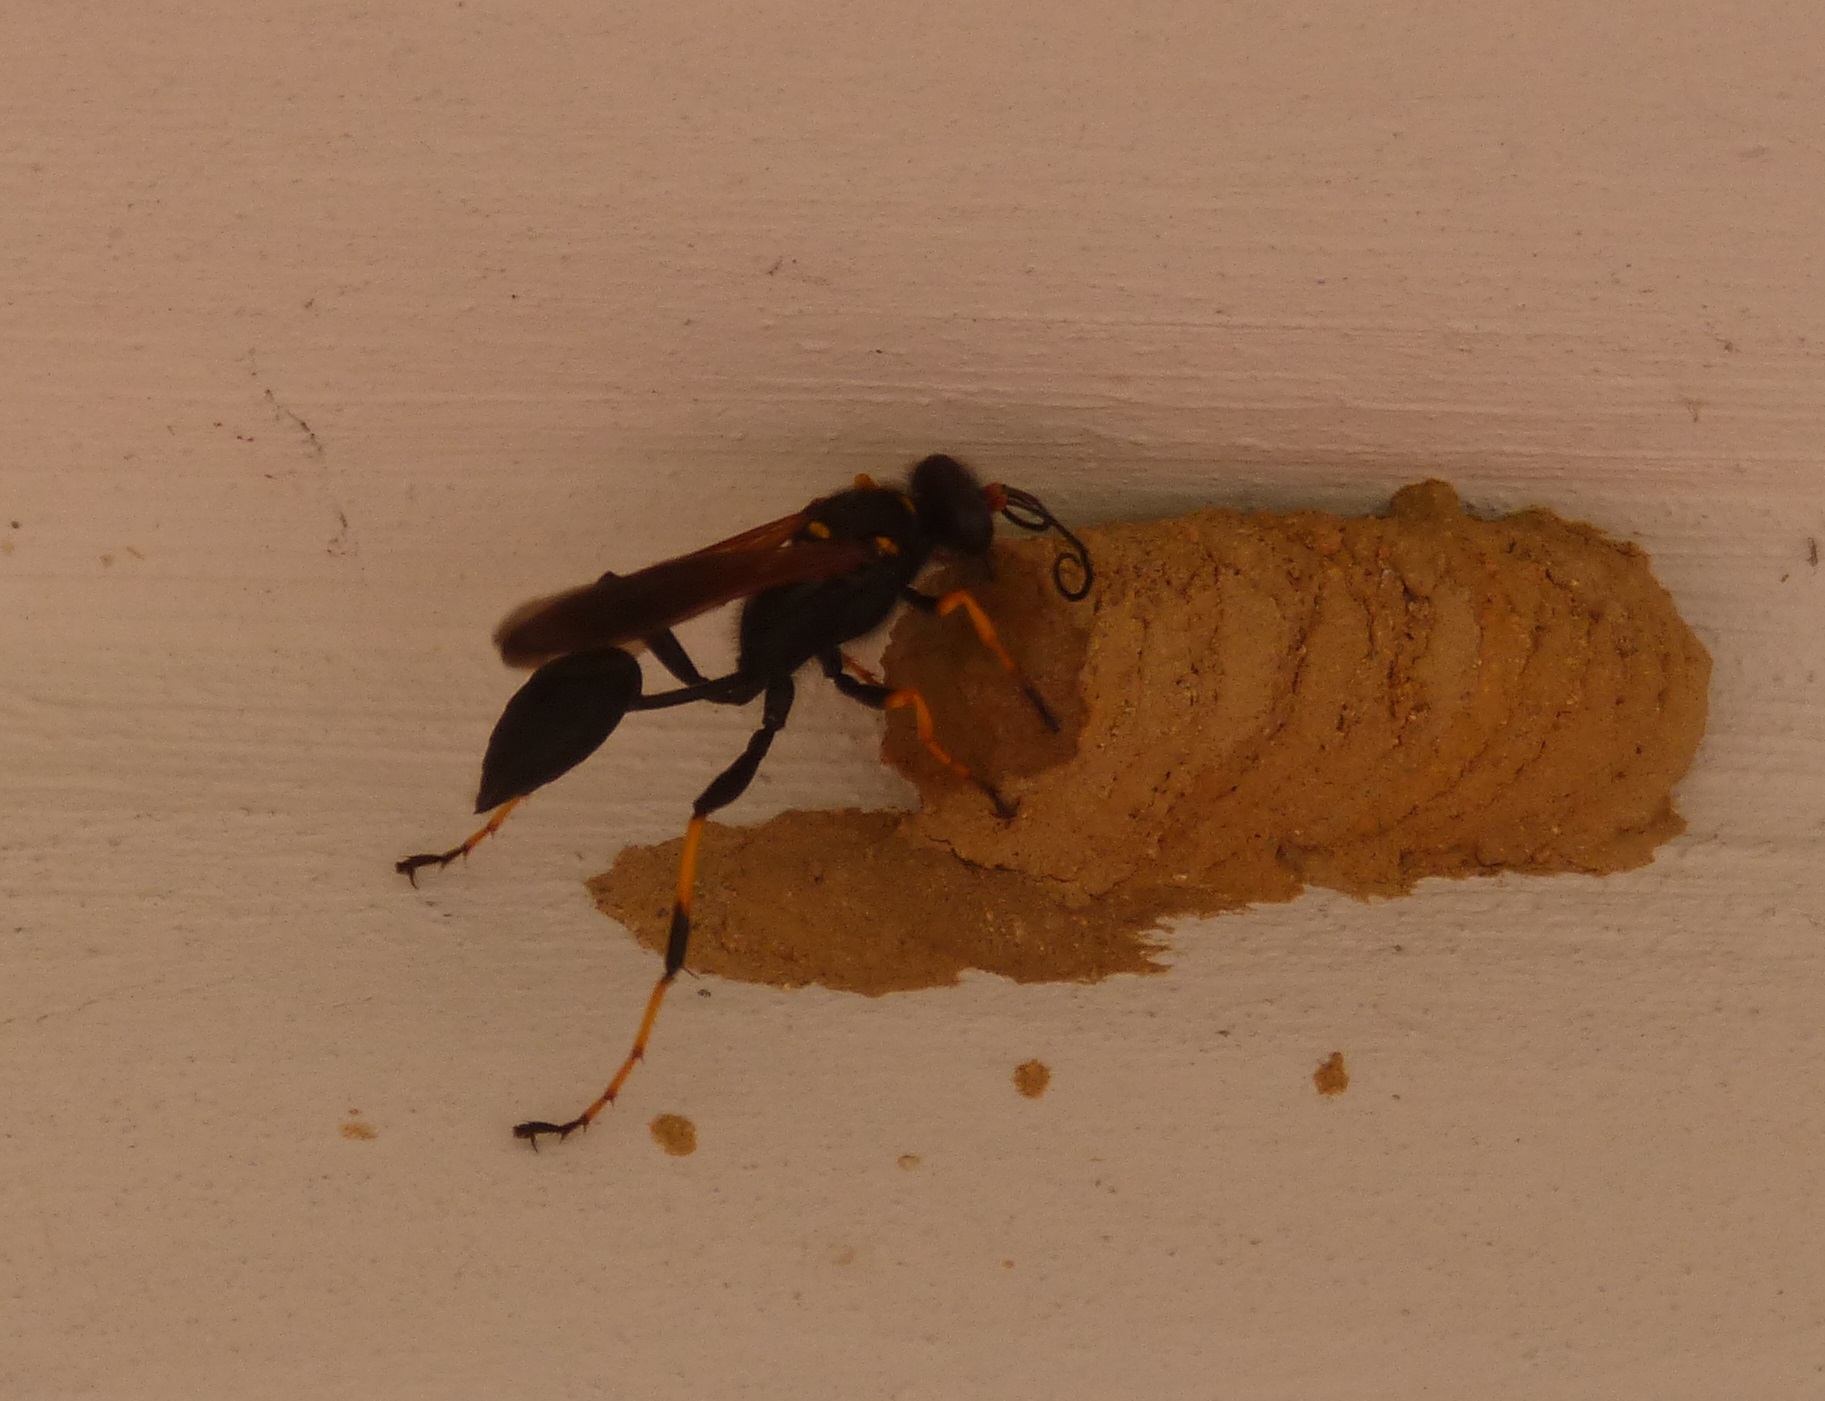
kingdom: Animalia
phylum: Arthropoda
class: Insecta
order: Hymenoptera
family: Sphecidae
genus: Sceliphron
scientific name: Sceliphron caementarium
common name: Mud dauber
